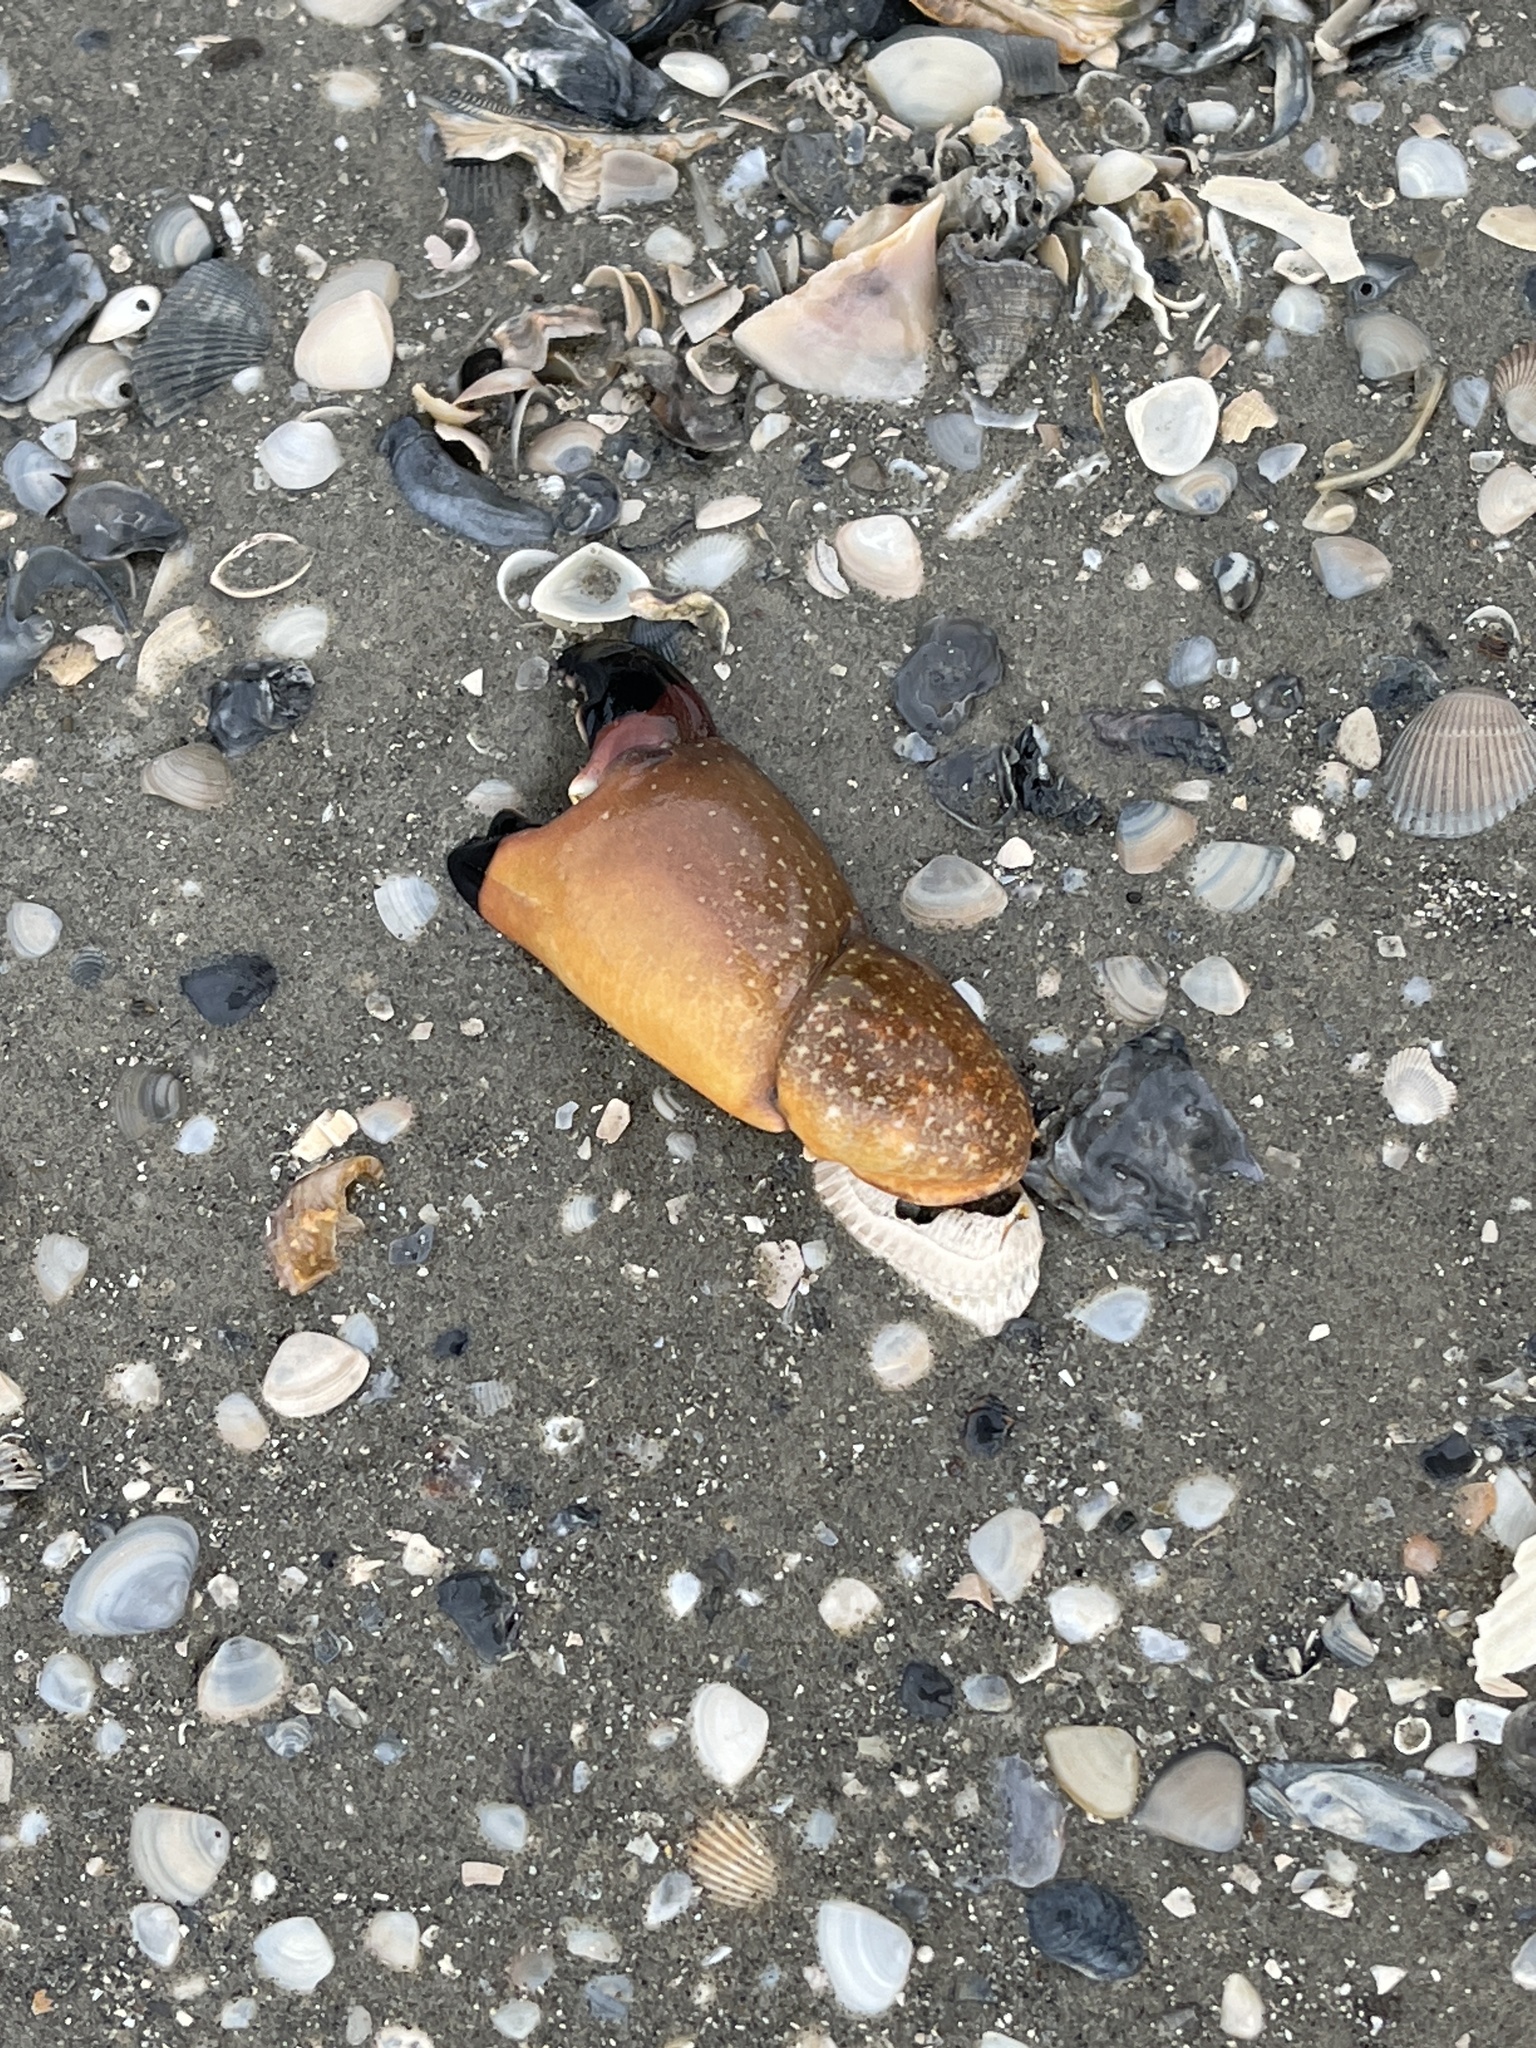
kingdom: Animalia
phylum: Arthropoda
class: Malacostraca
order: Decapoda
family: Menippidae
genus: Menippe
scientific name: Menippe adina
